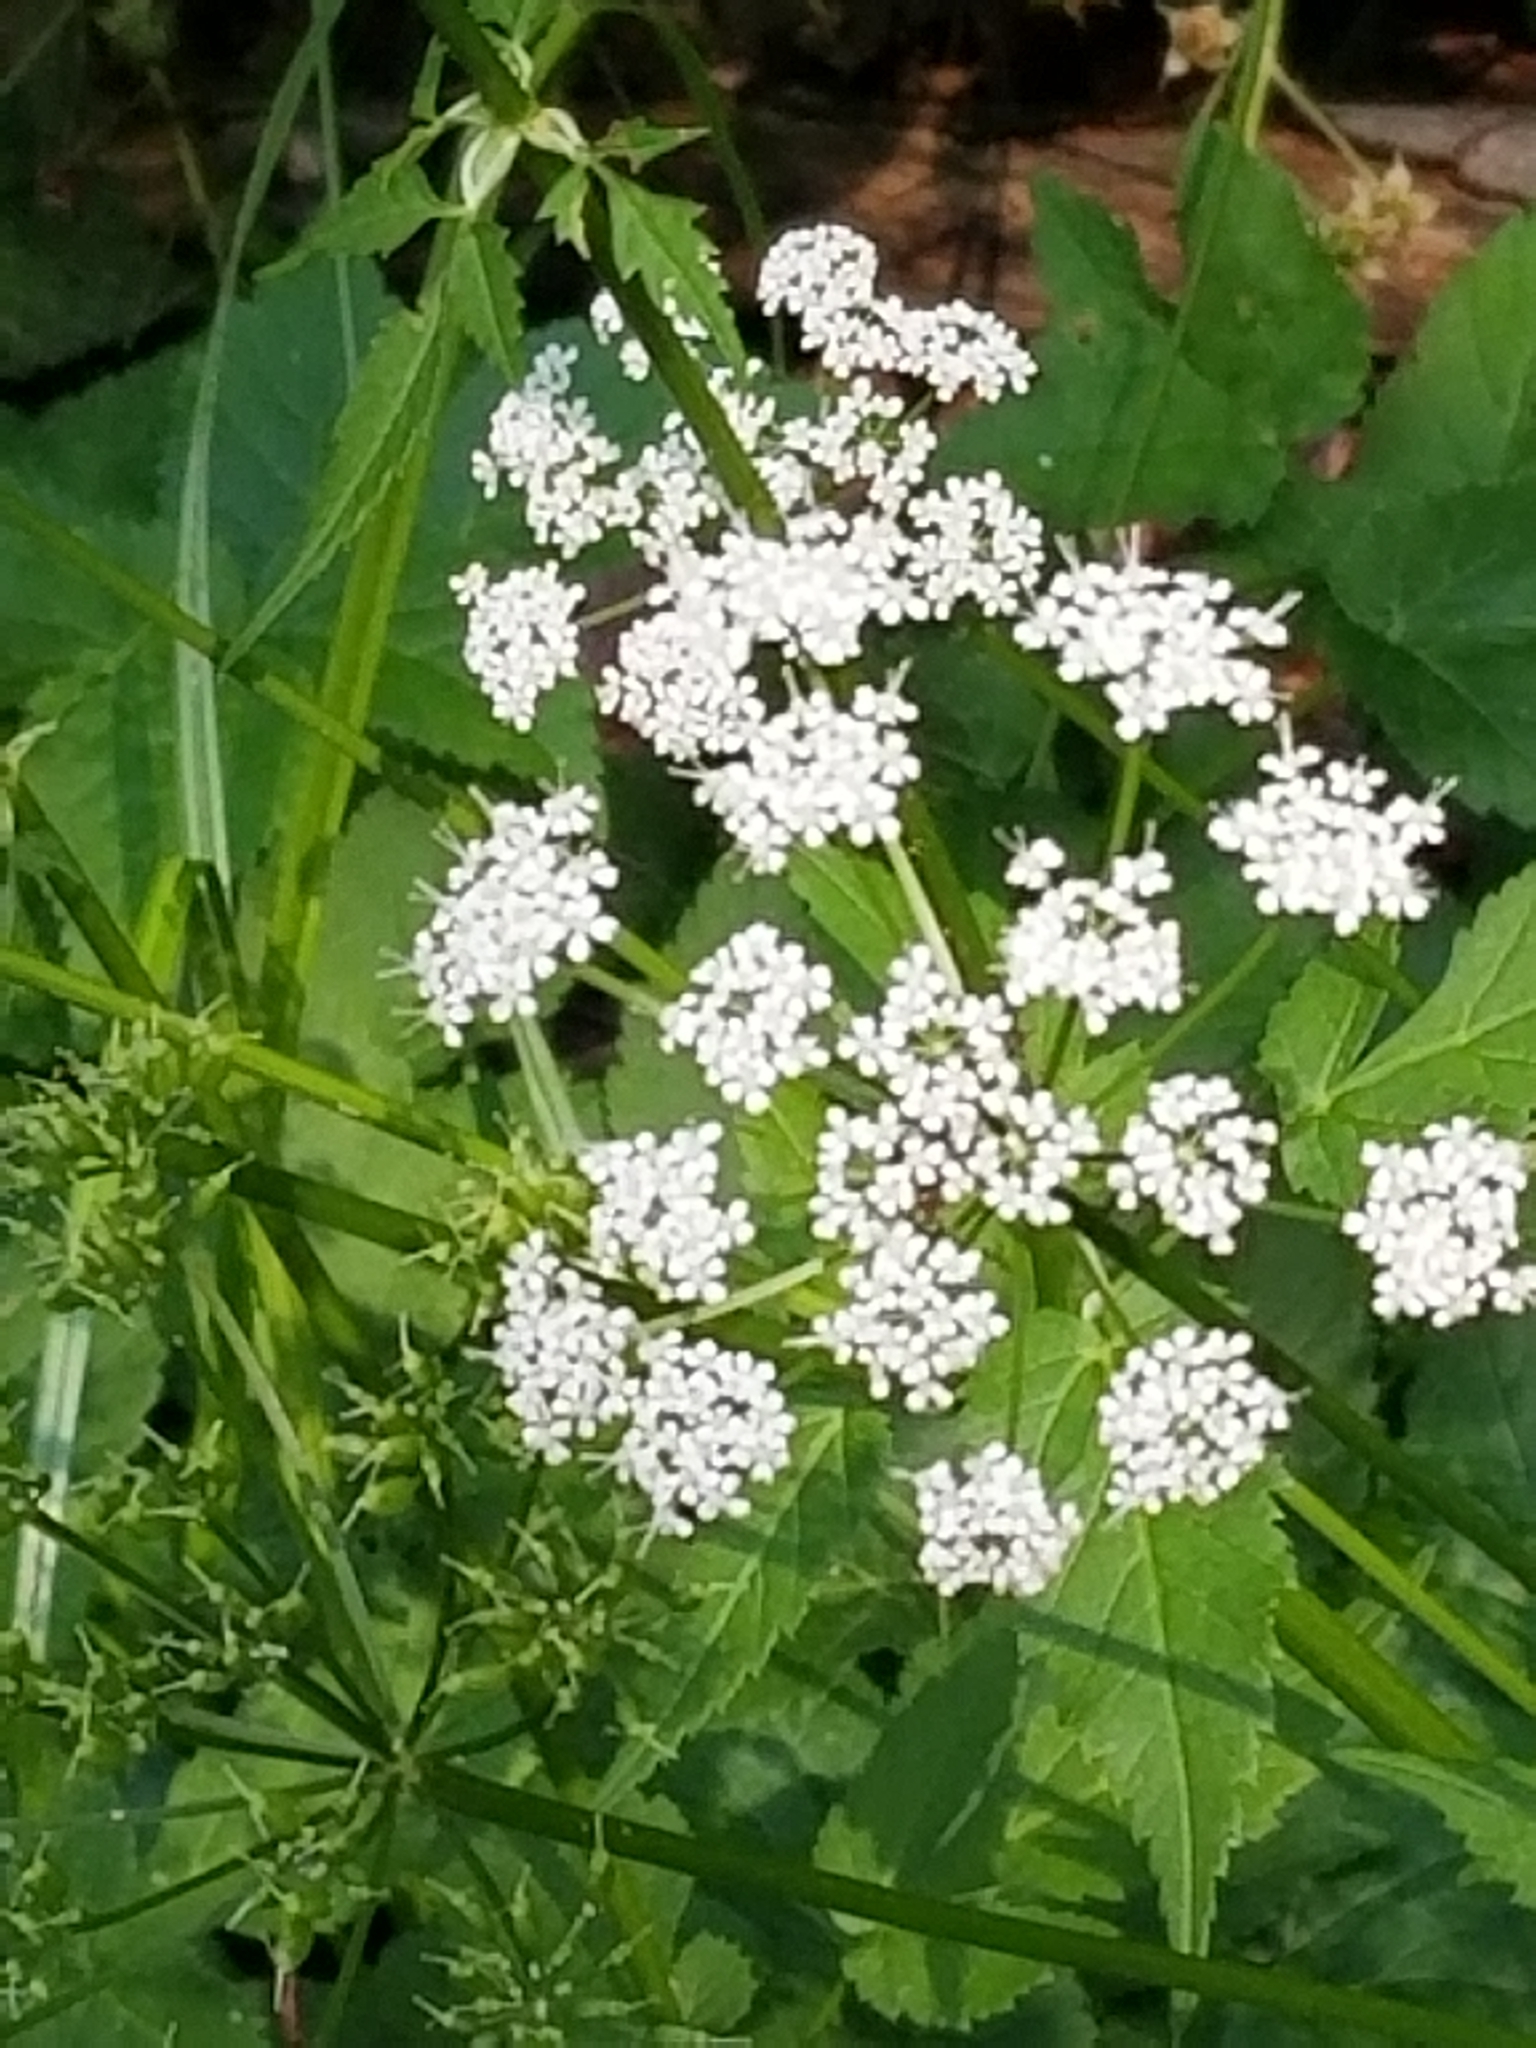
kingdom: Plantae
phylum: Tracheophyta
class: Magnoliopsida
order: Apiales
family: Apiaceae
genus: Aegopodium
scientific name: Aegopodium podagraria
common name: Ground-elder
